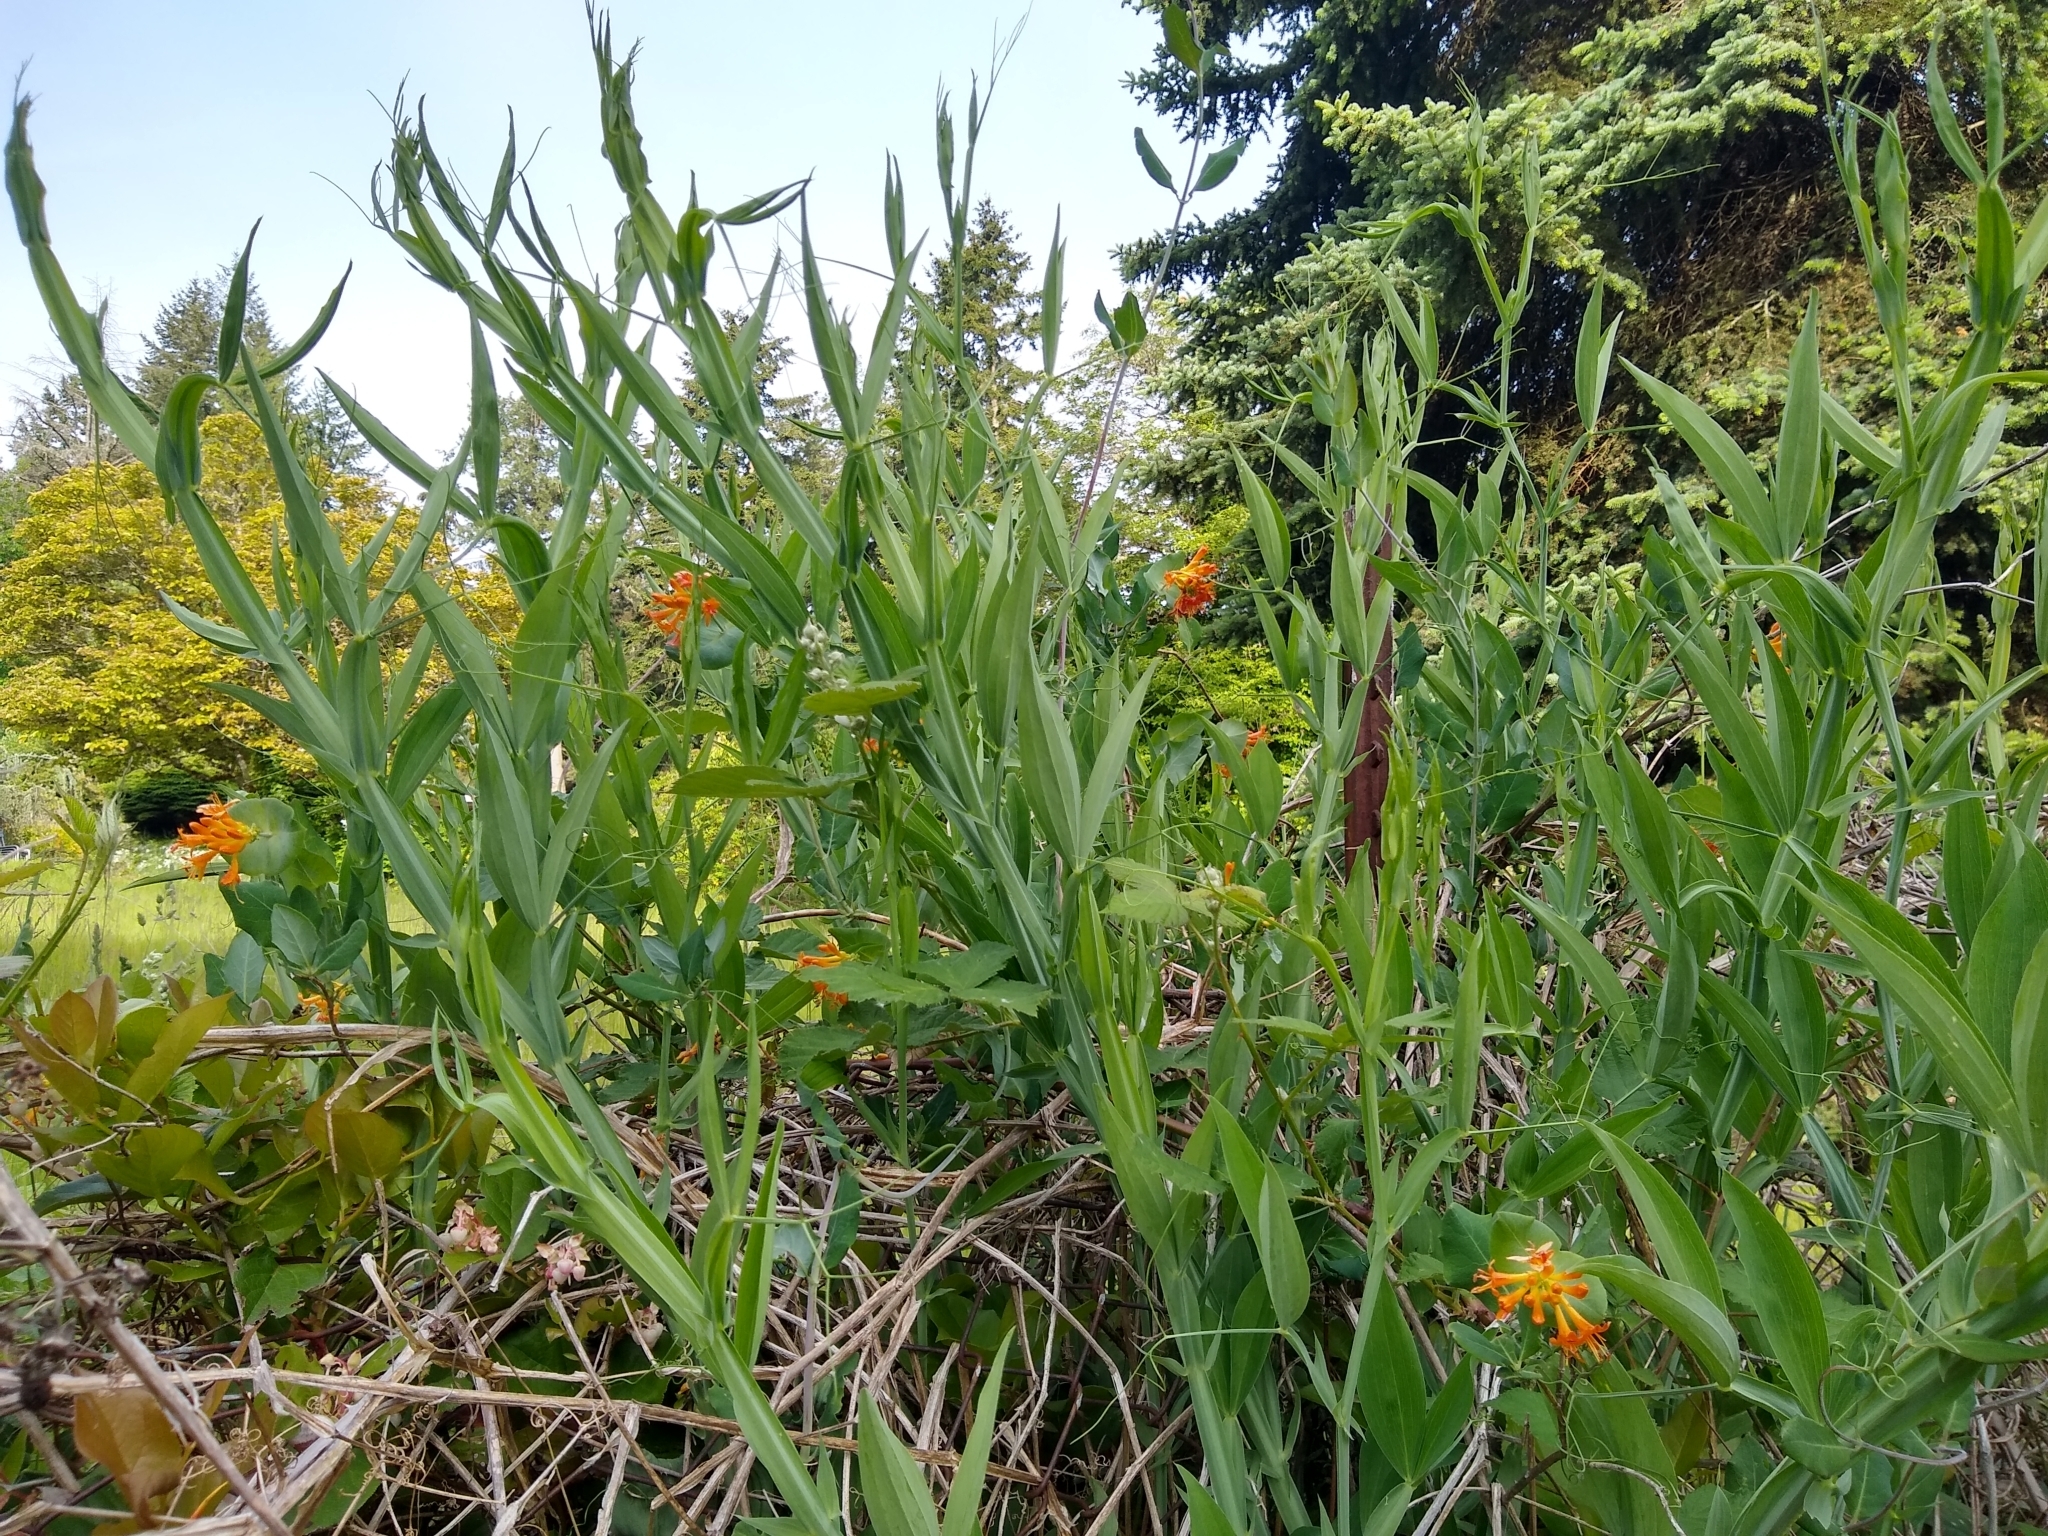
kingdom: Plantae
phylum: Tracheophyta
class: Magnoliopsida
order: Dipsacales
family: Caprifoliaceae
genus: Lonicera
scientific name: Lonicera ciliosa
